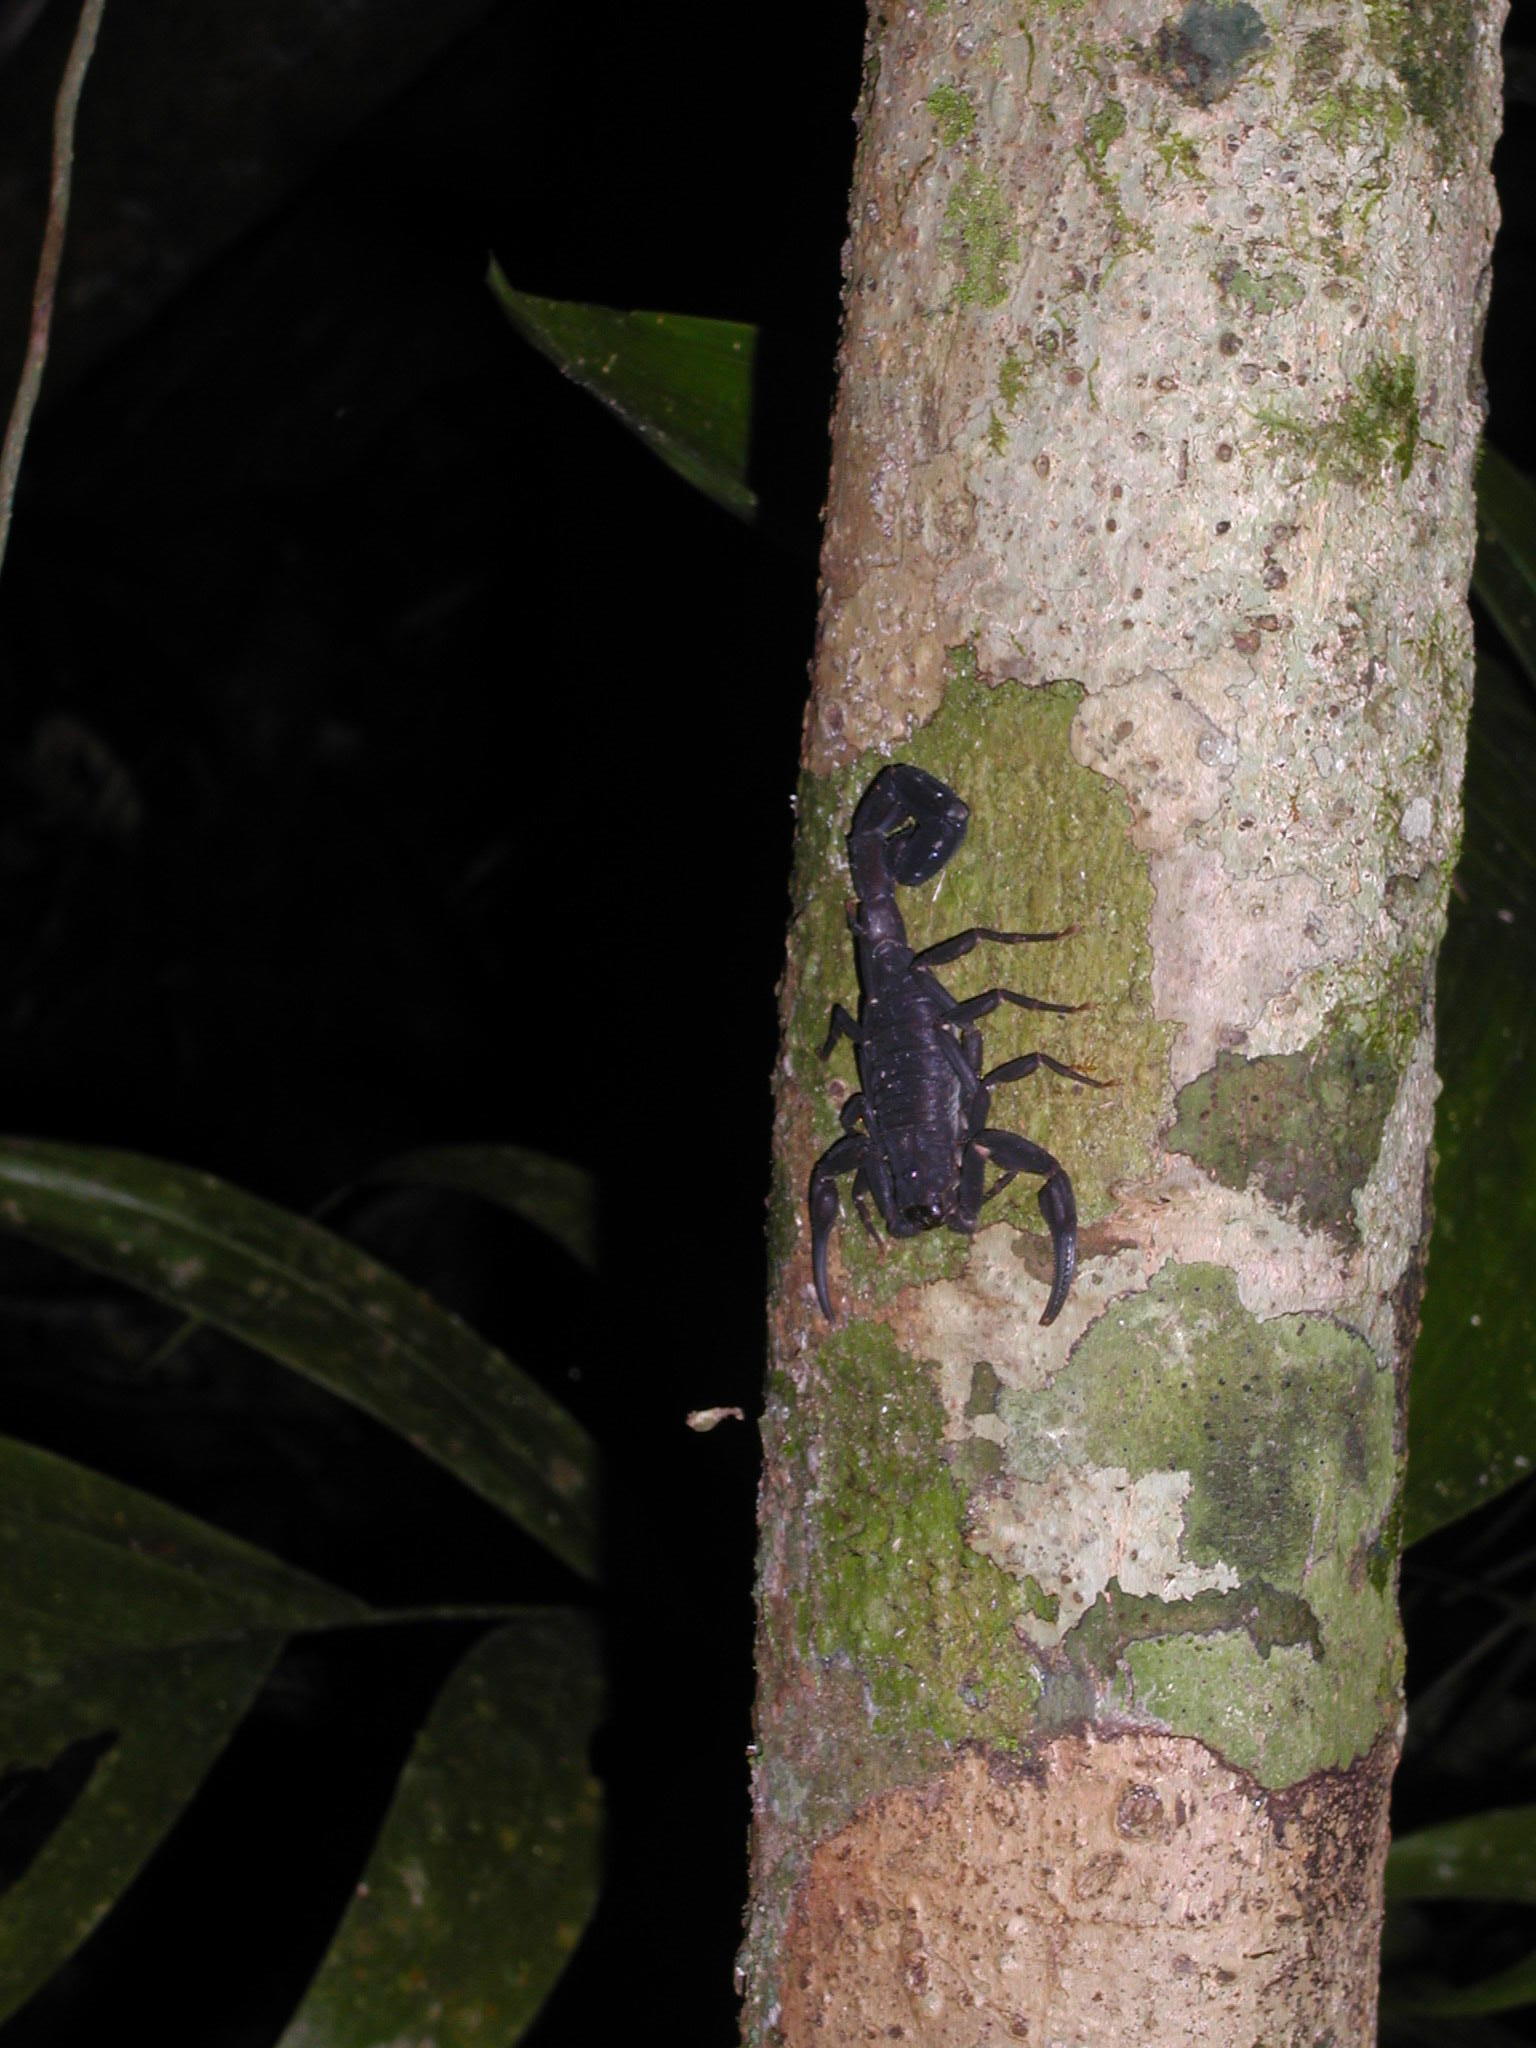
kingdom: Animalia
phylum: Arthropoda
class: Arachnida
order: Scorpiones
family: Buthidae
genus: Tityus
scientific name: Tityus asthenes
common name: Scorpions
